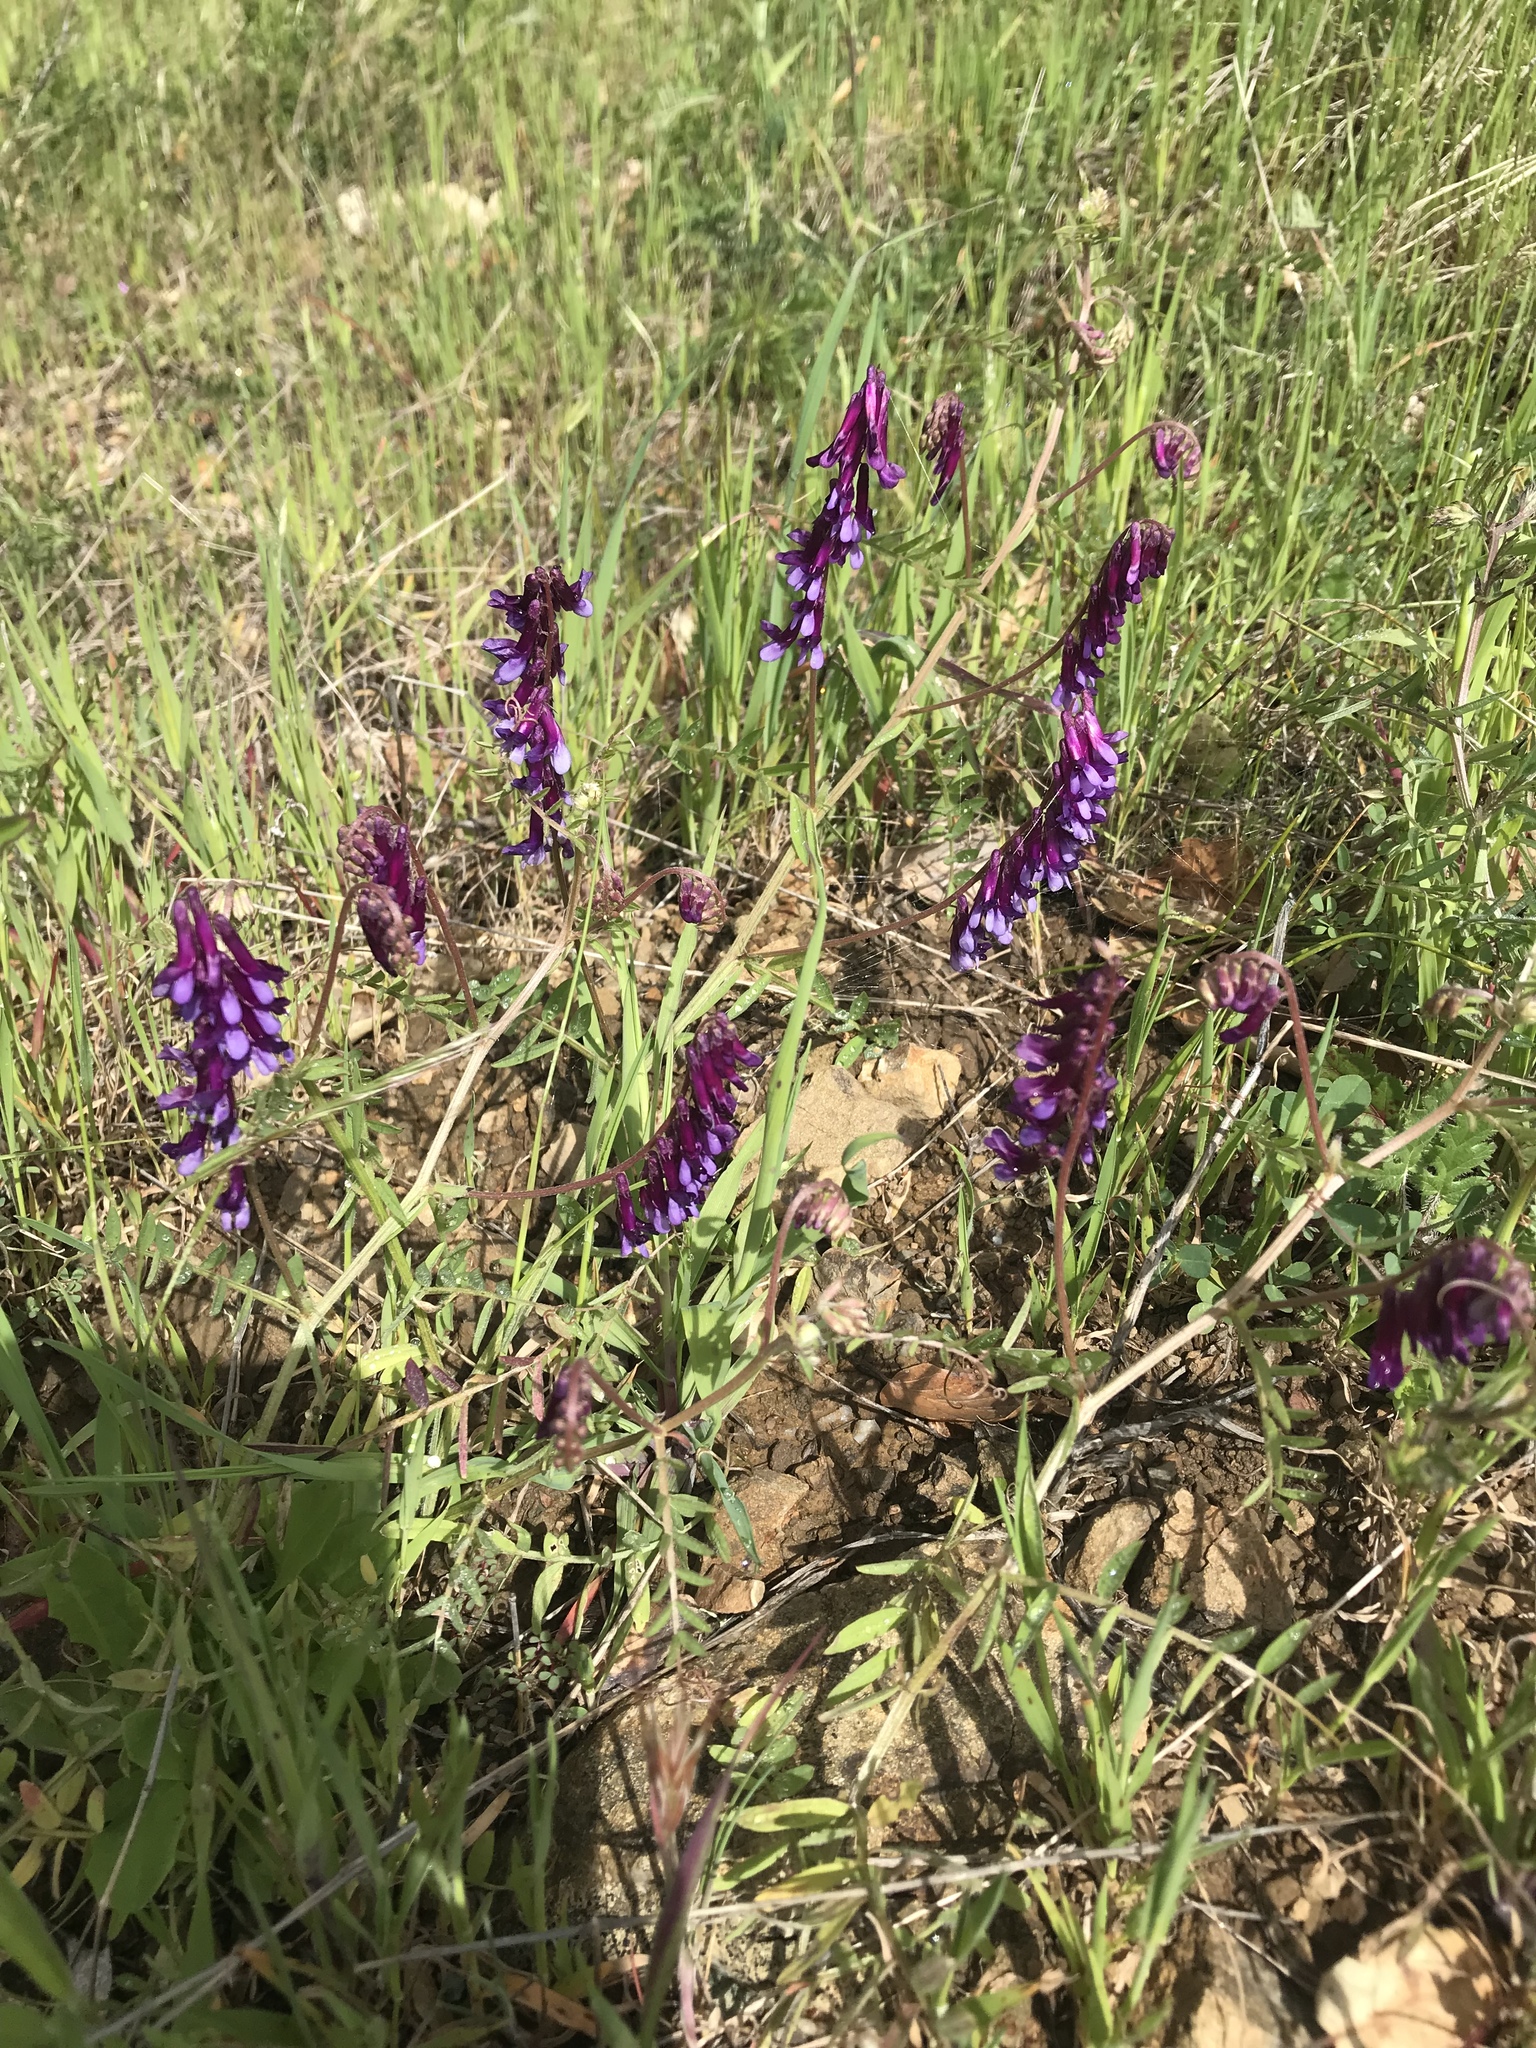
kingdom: Plantae
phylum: Tracheophyta
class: Magnoliopsida
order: Fabales
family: Fabaceae
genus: Vicia
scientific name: Vicia villosa
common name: Fodder vetch
